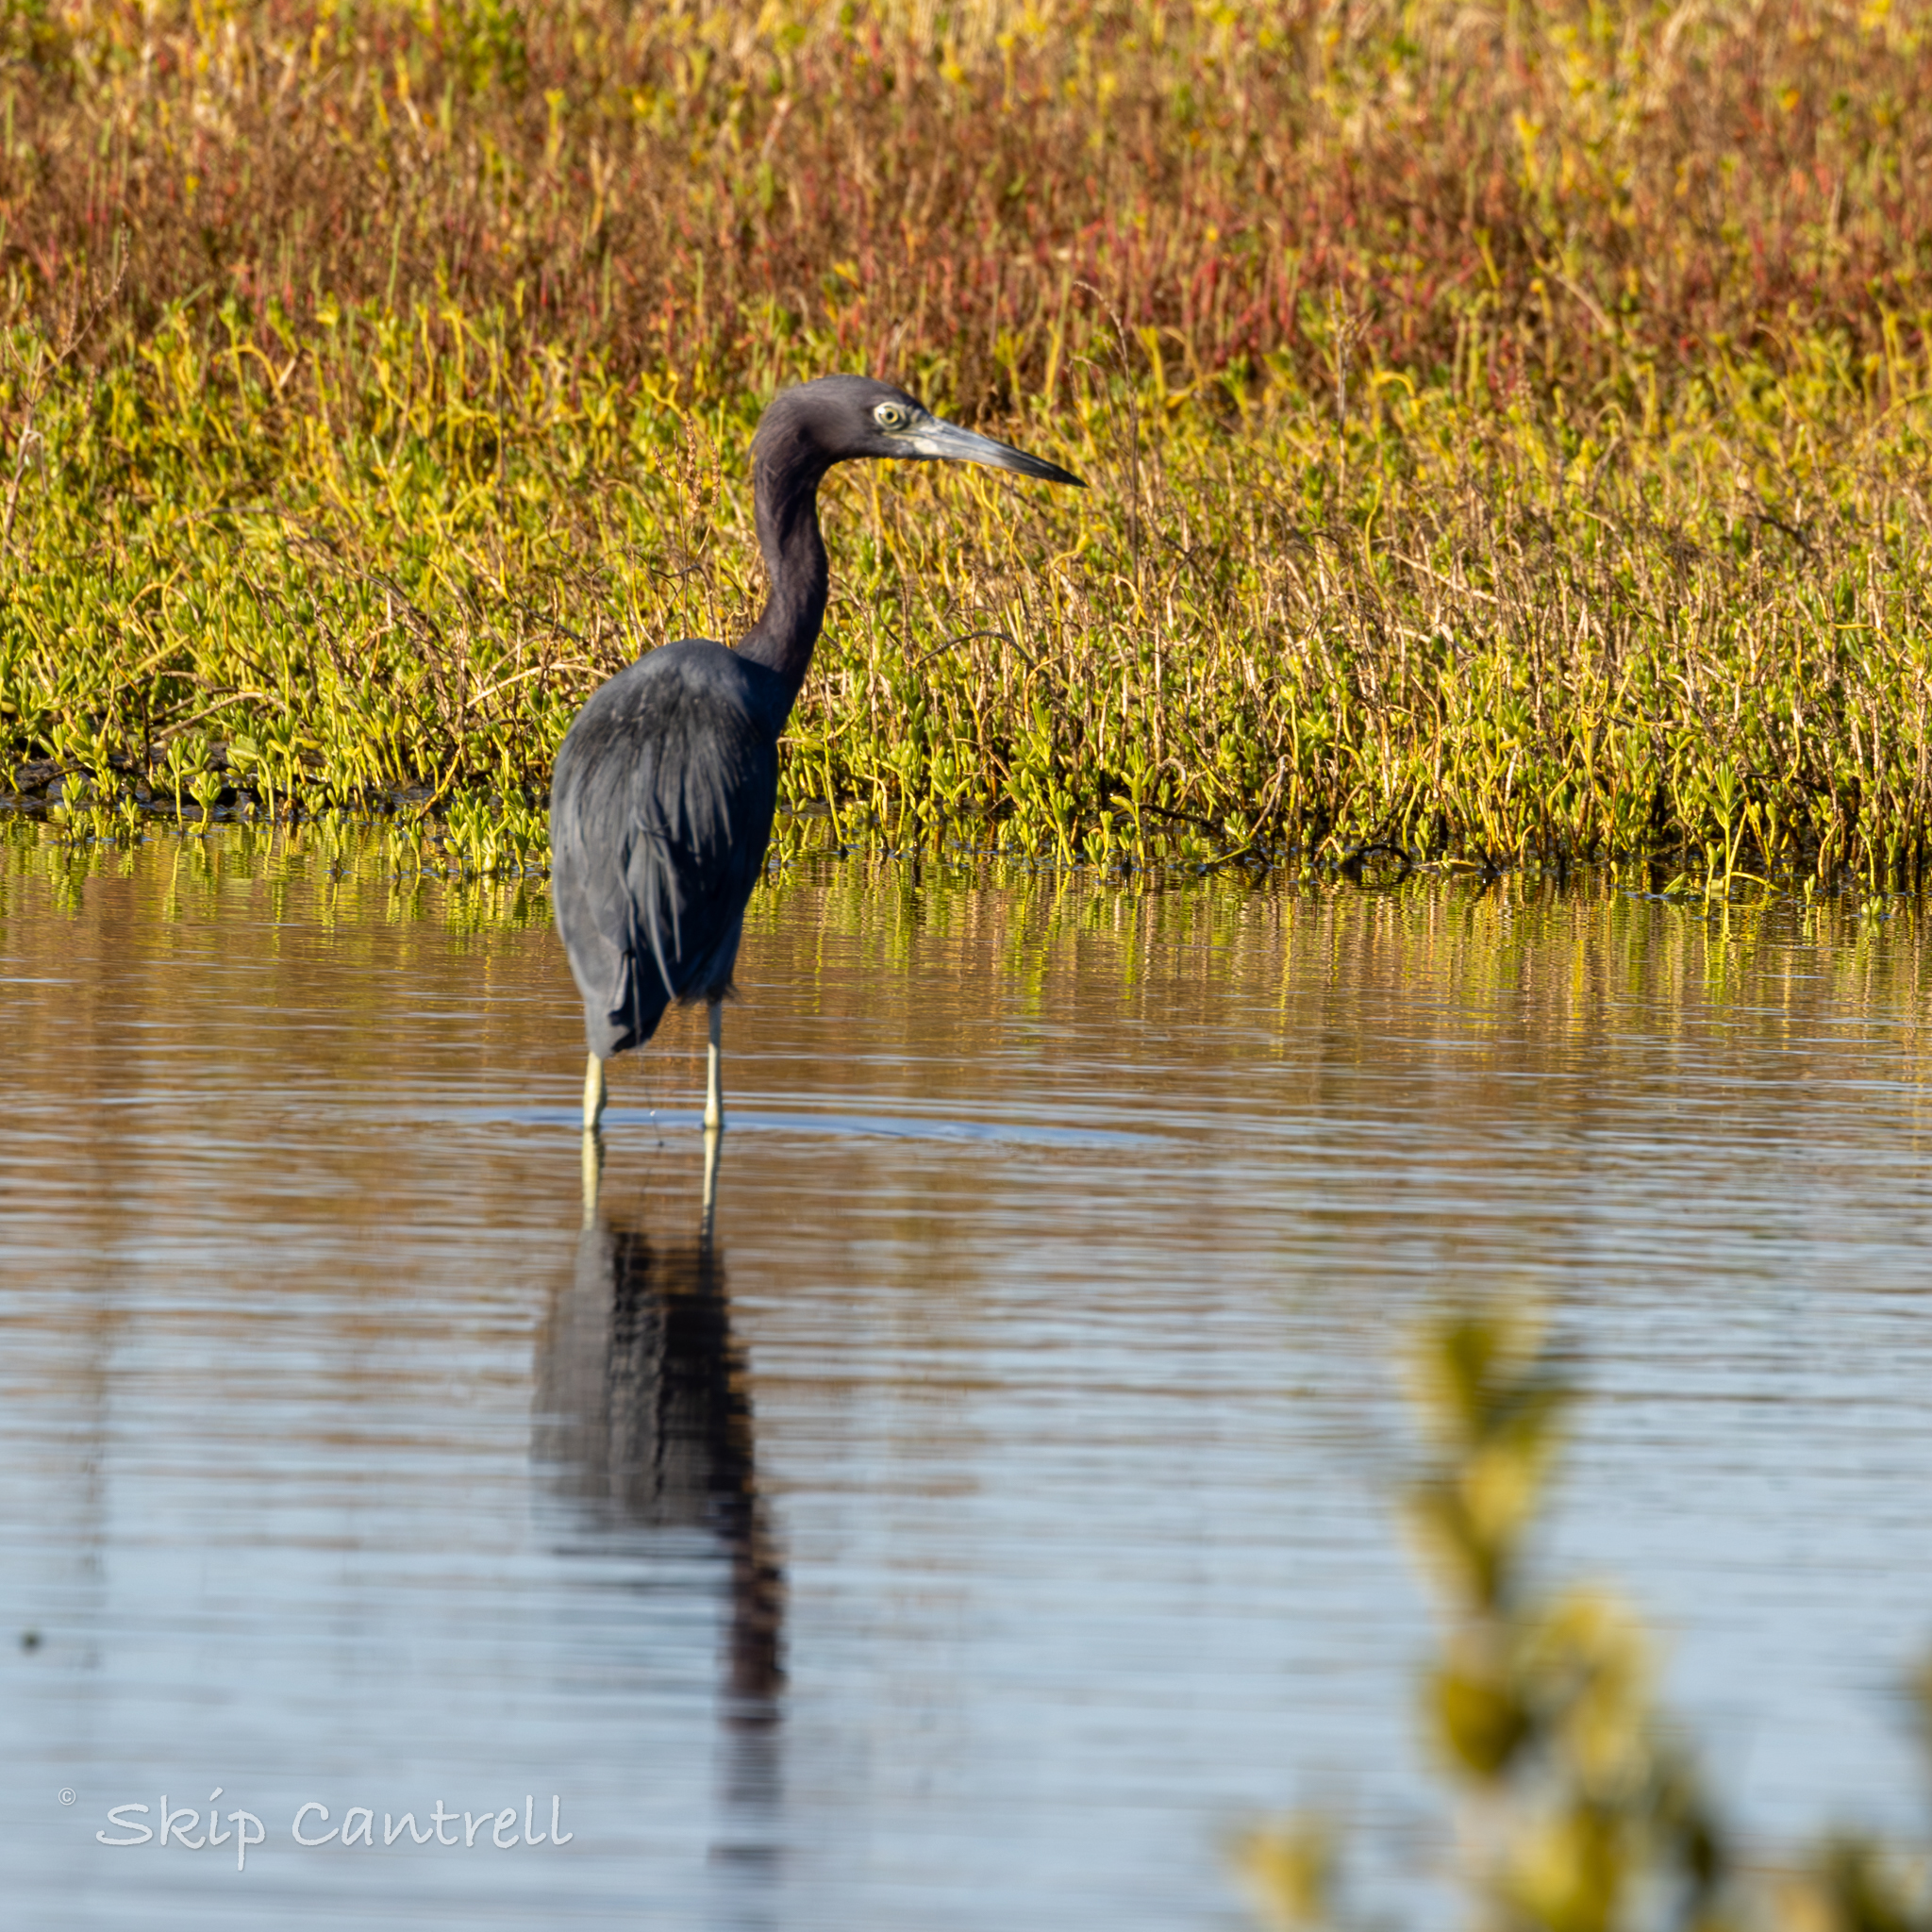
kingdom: Animalia
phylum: Chordata
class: Aves
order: Pelecaniformes
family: Ardeidae
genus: Egretta
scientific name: Egretta caerulea
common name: Little blue heron
